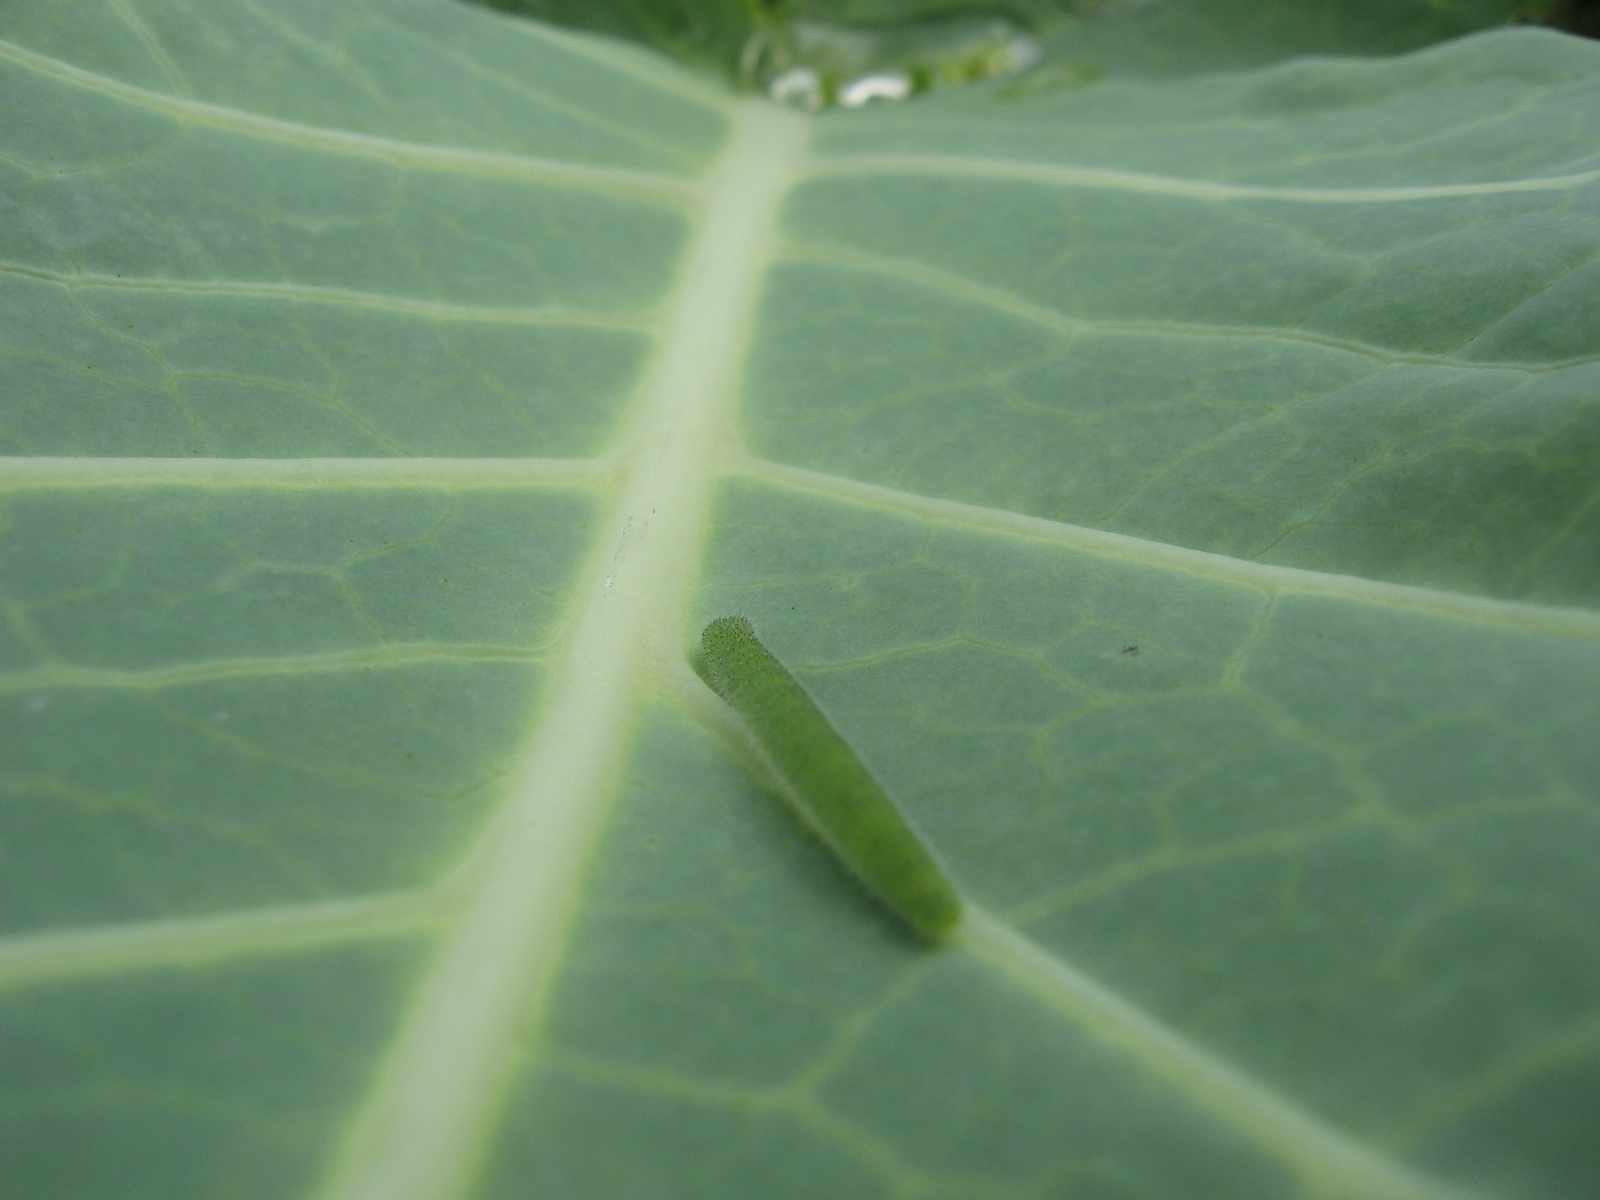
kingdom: Animalia
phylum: Arthropoda
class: Insecta
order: Lepidoptera
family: Pieridae
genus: Pieris
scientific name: Pieris
